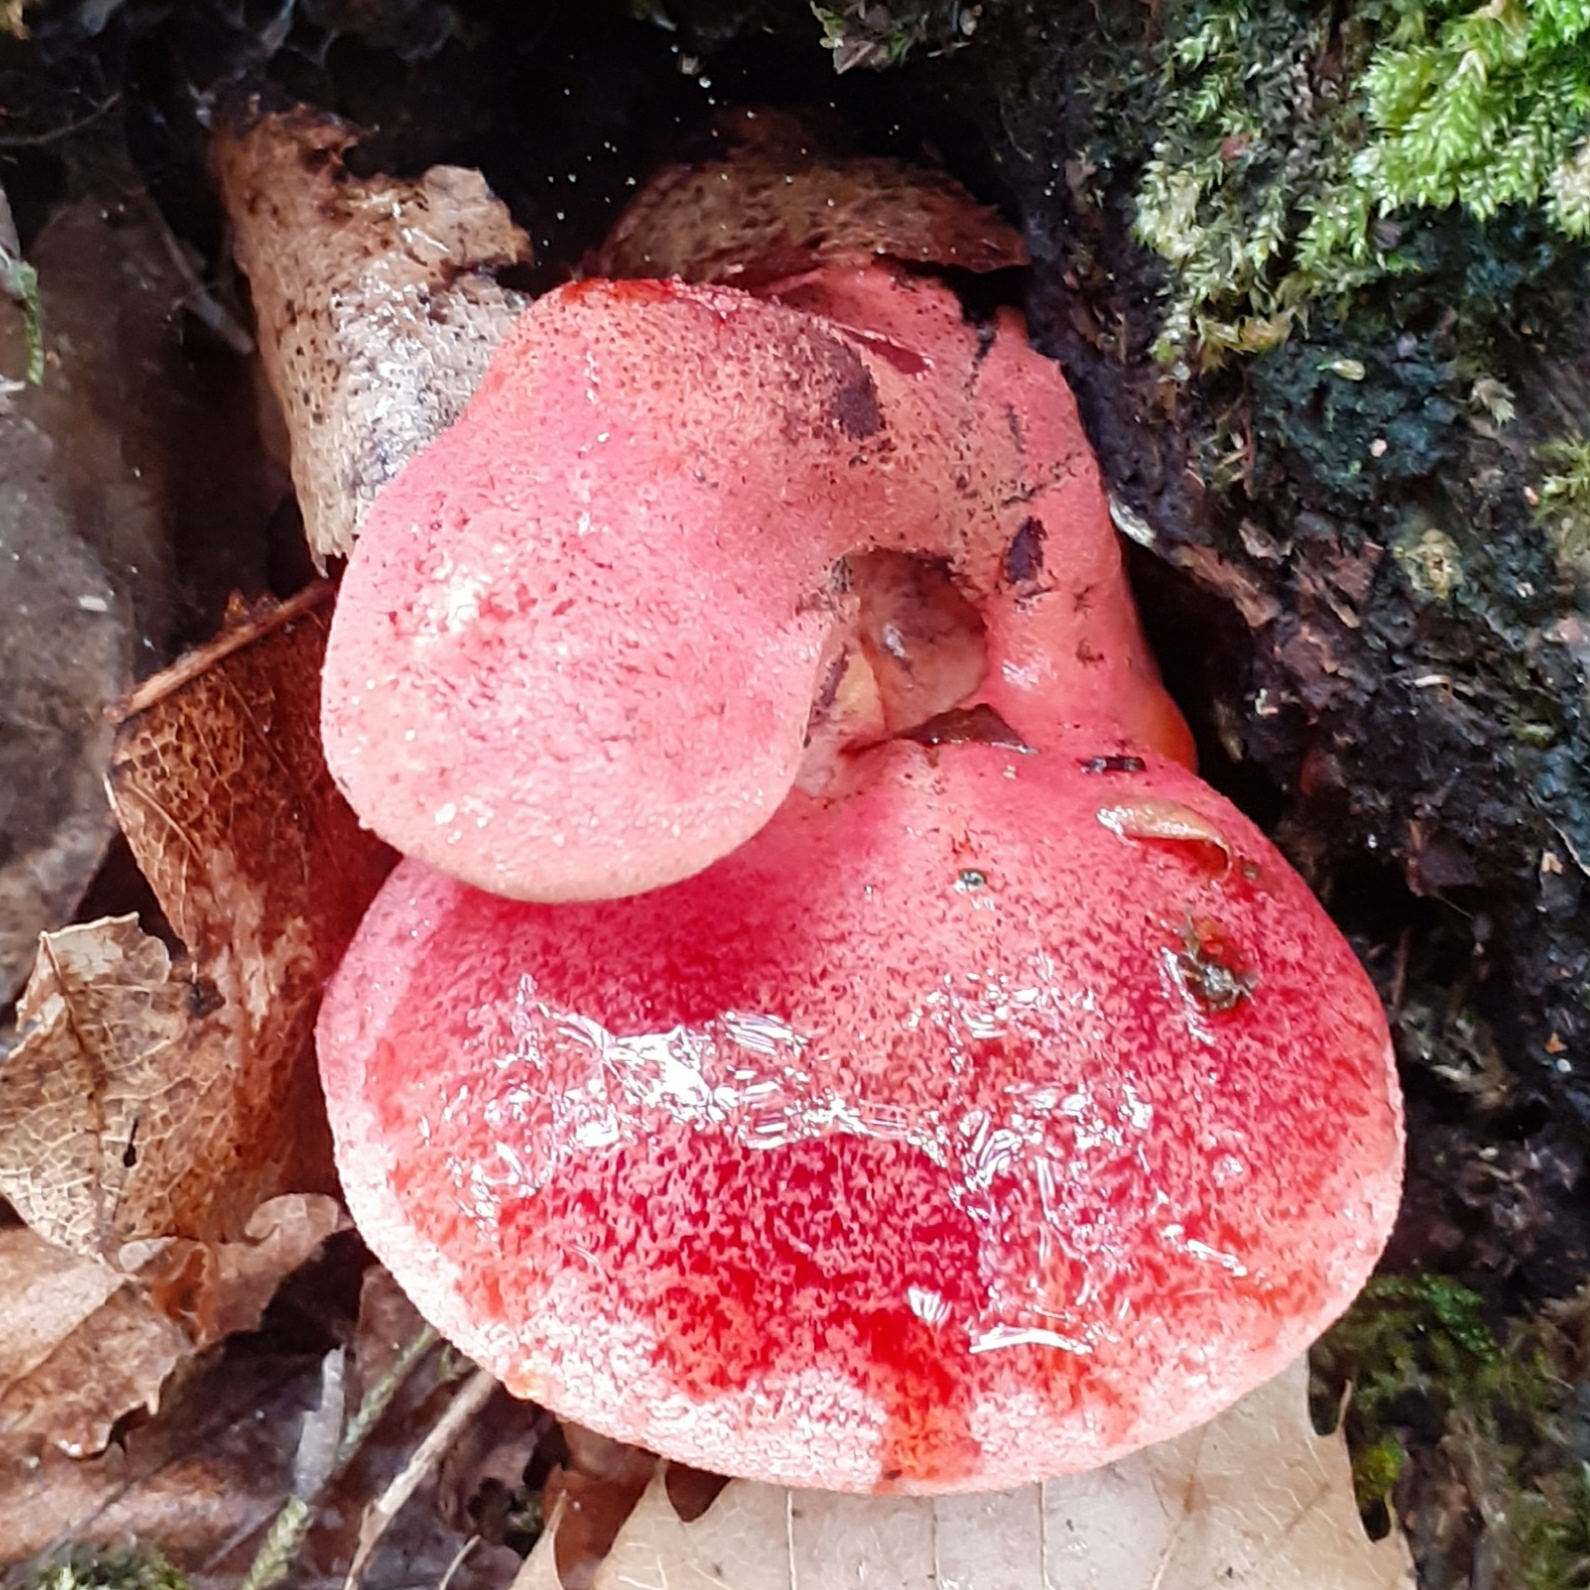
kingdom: Fungi
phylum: Basidiomycota
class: Agaricomycetes
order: Agaricales
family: Fistulinaceae
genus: Fistulina
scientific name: Fistulina hepatica
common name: Beef-steak fungus
